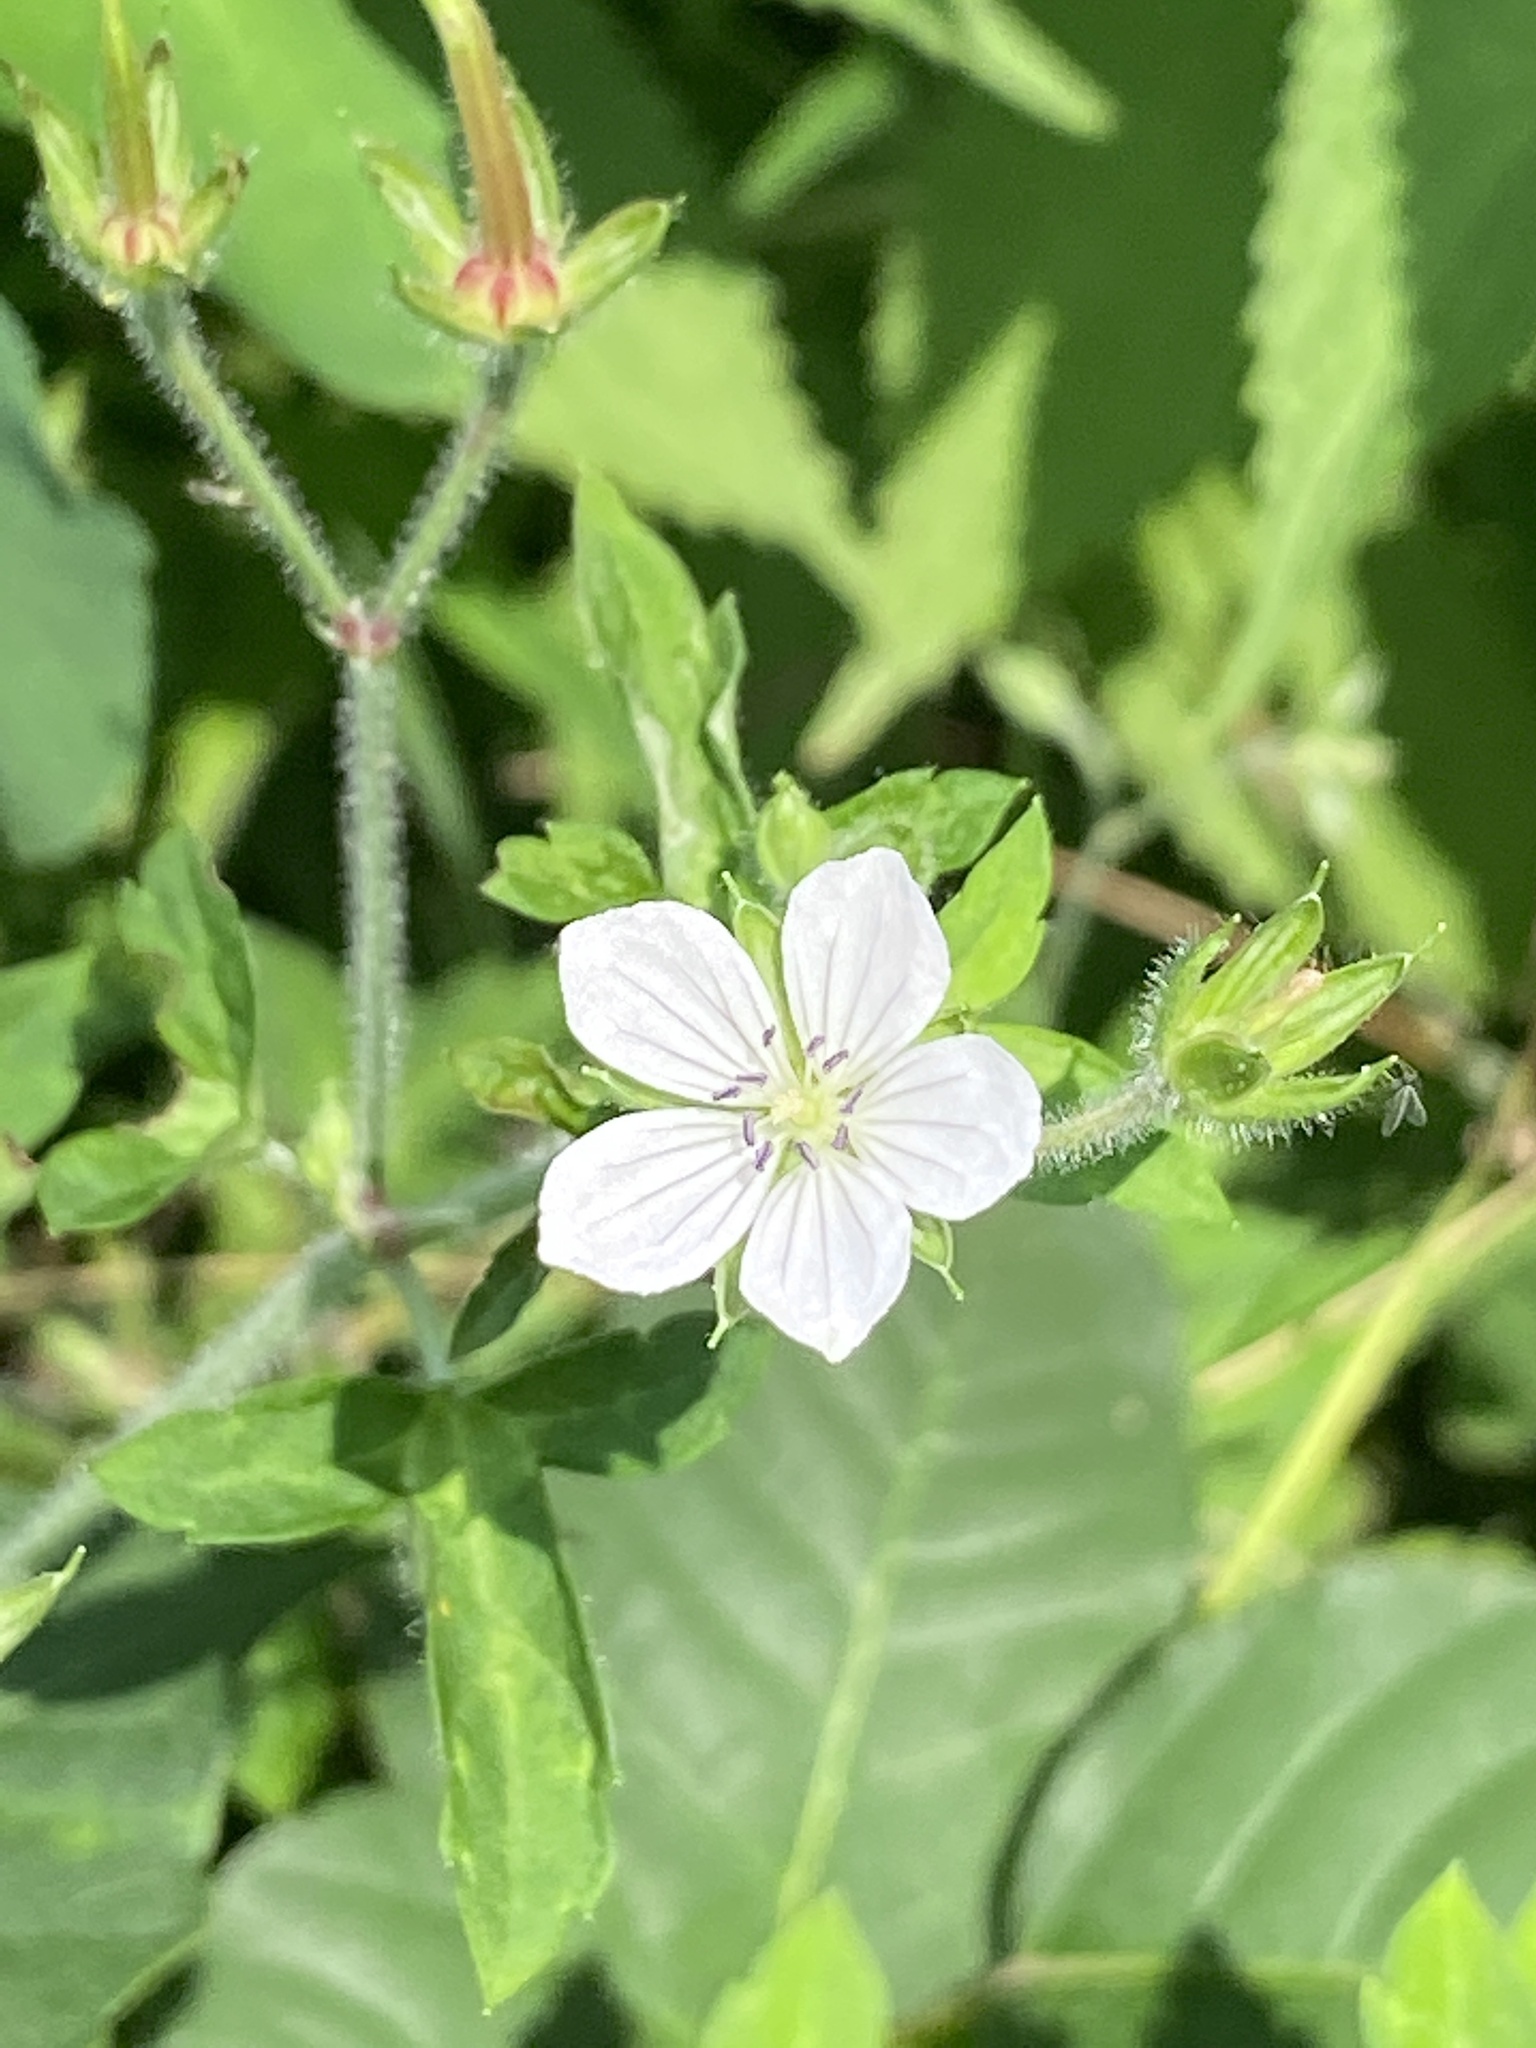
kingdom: Plantae
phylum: Tracheophyta
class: Magnoliopsida
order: Geraniales
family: Geraniaceae
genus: Geranium
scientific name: Geranium thunbergii
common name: Dewdrop crane's-bill
